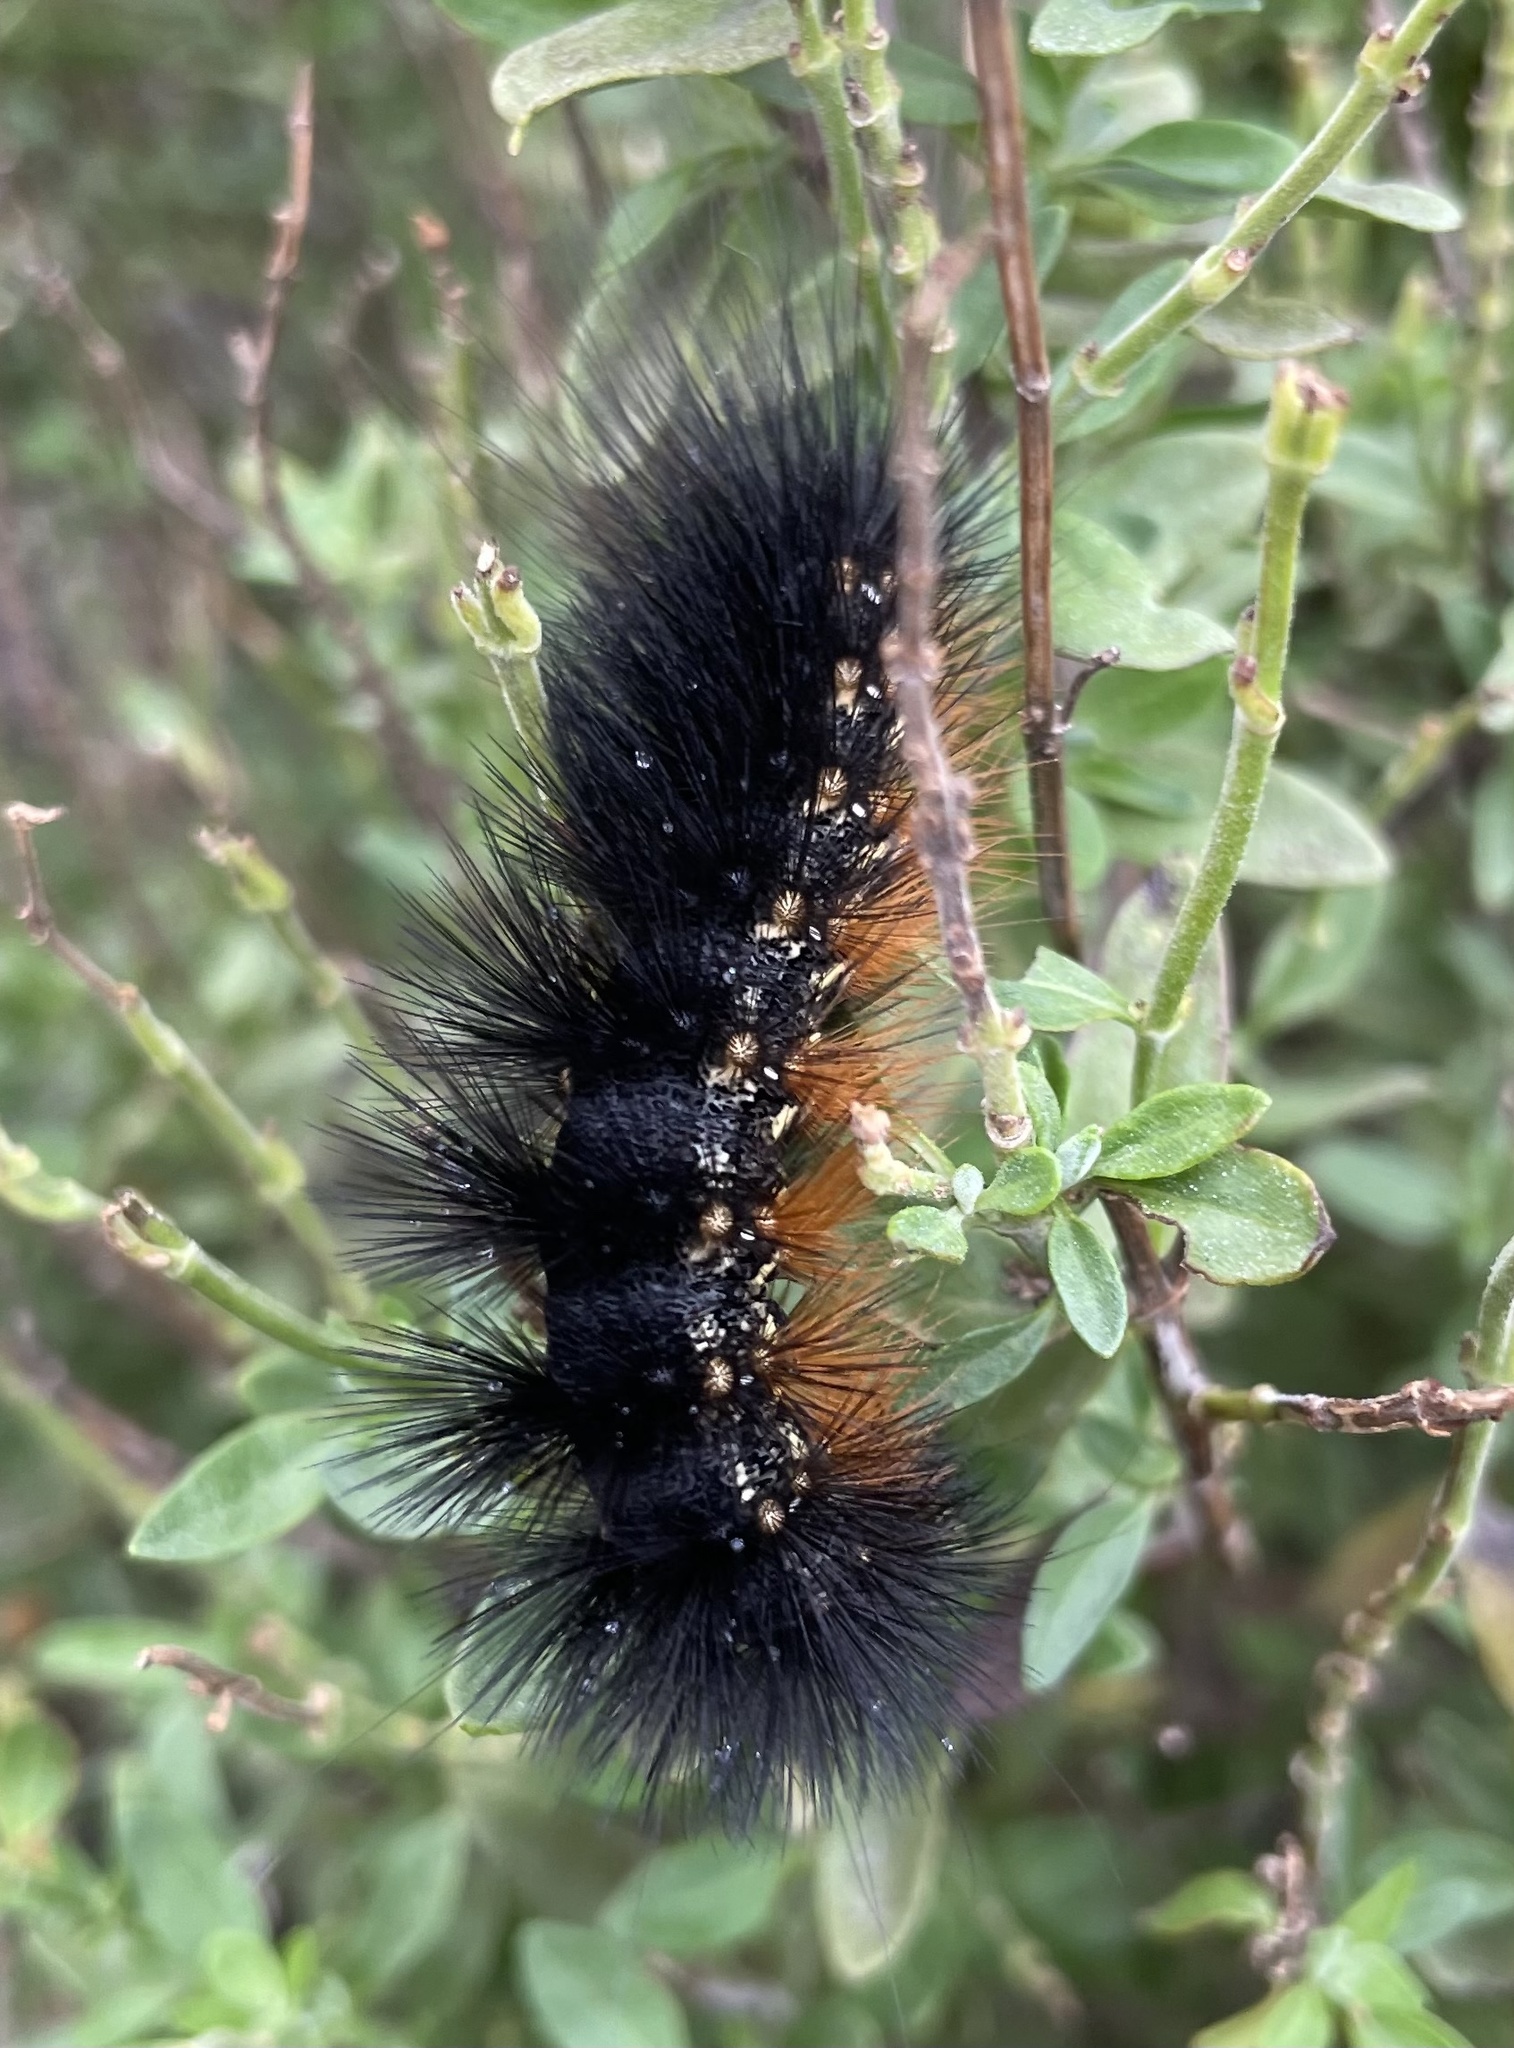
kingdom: Animalia
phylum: Arthropoda
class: Insecta
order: Lepidoptera
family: Erebidae
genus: Estigmene
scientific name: Estigmene acrea
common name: Salt marsh moth
